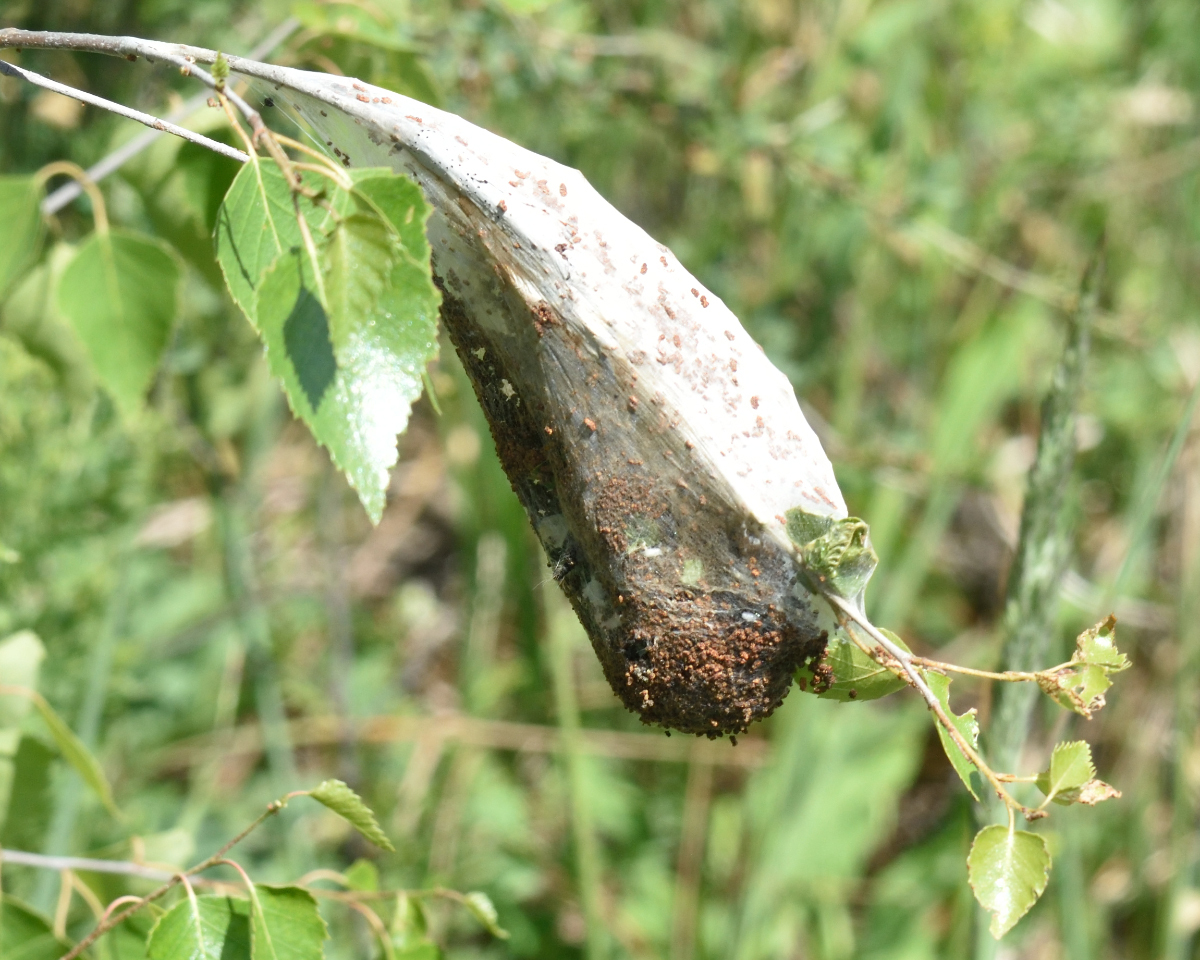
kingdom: Animalia
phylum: Arthropoda
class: Insecta
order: Lepidoptera
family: Lasiocampidae
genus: Eriogaster
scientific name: Eriogaster lanestris
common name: Small eggar
